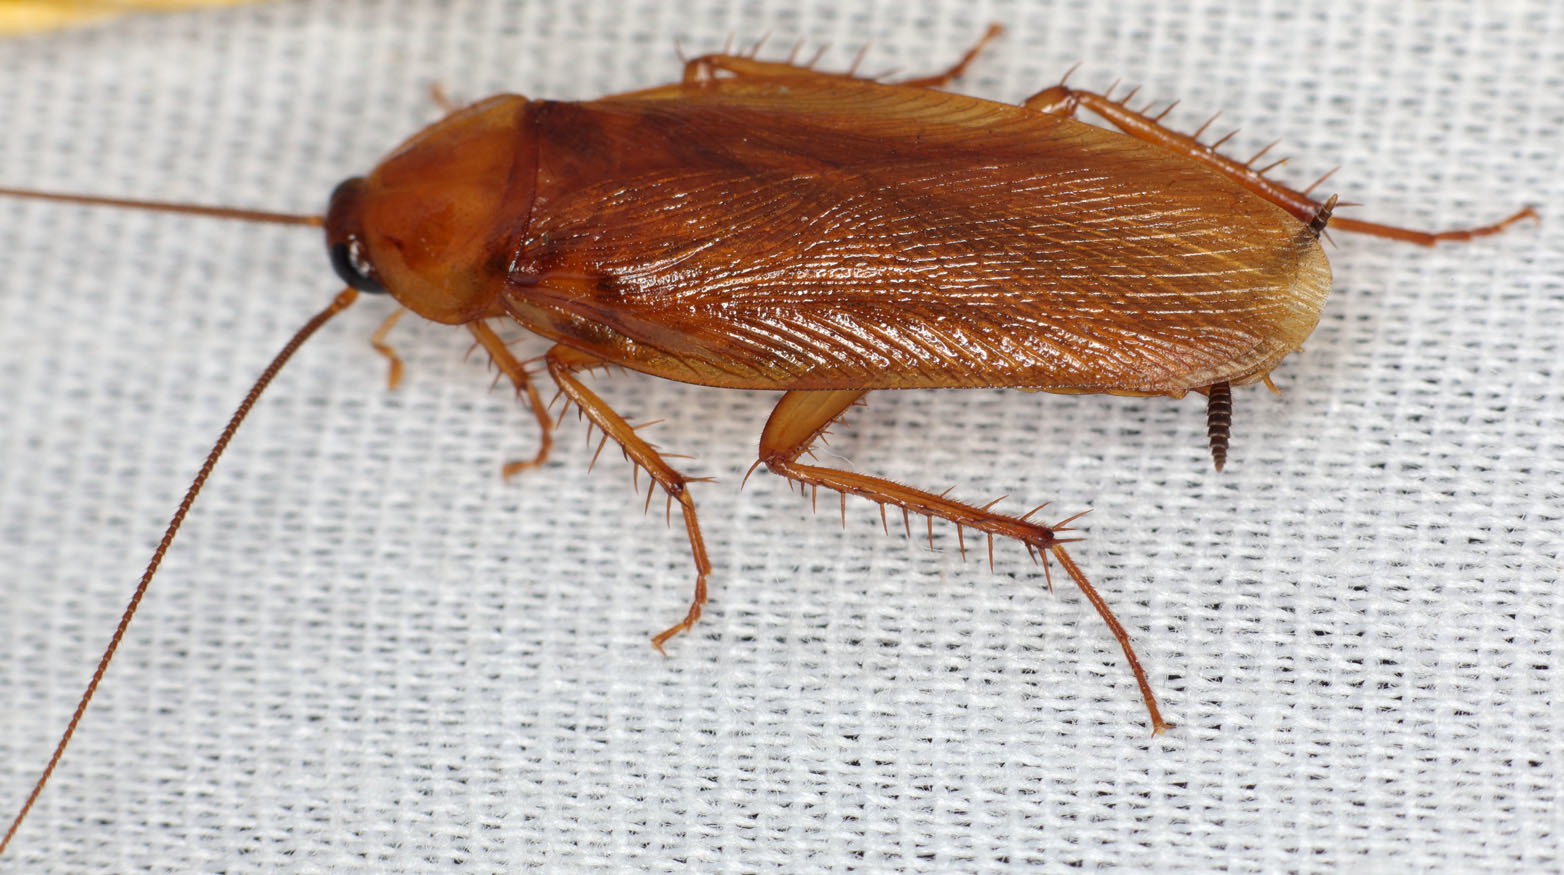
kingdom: Animalia
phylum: Arthropoda
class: Insecta
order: Blattodea
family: Ectobiidae
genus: Parcoblatta
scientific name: Parcoblatta americana
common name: Western wood cockroach
